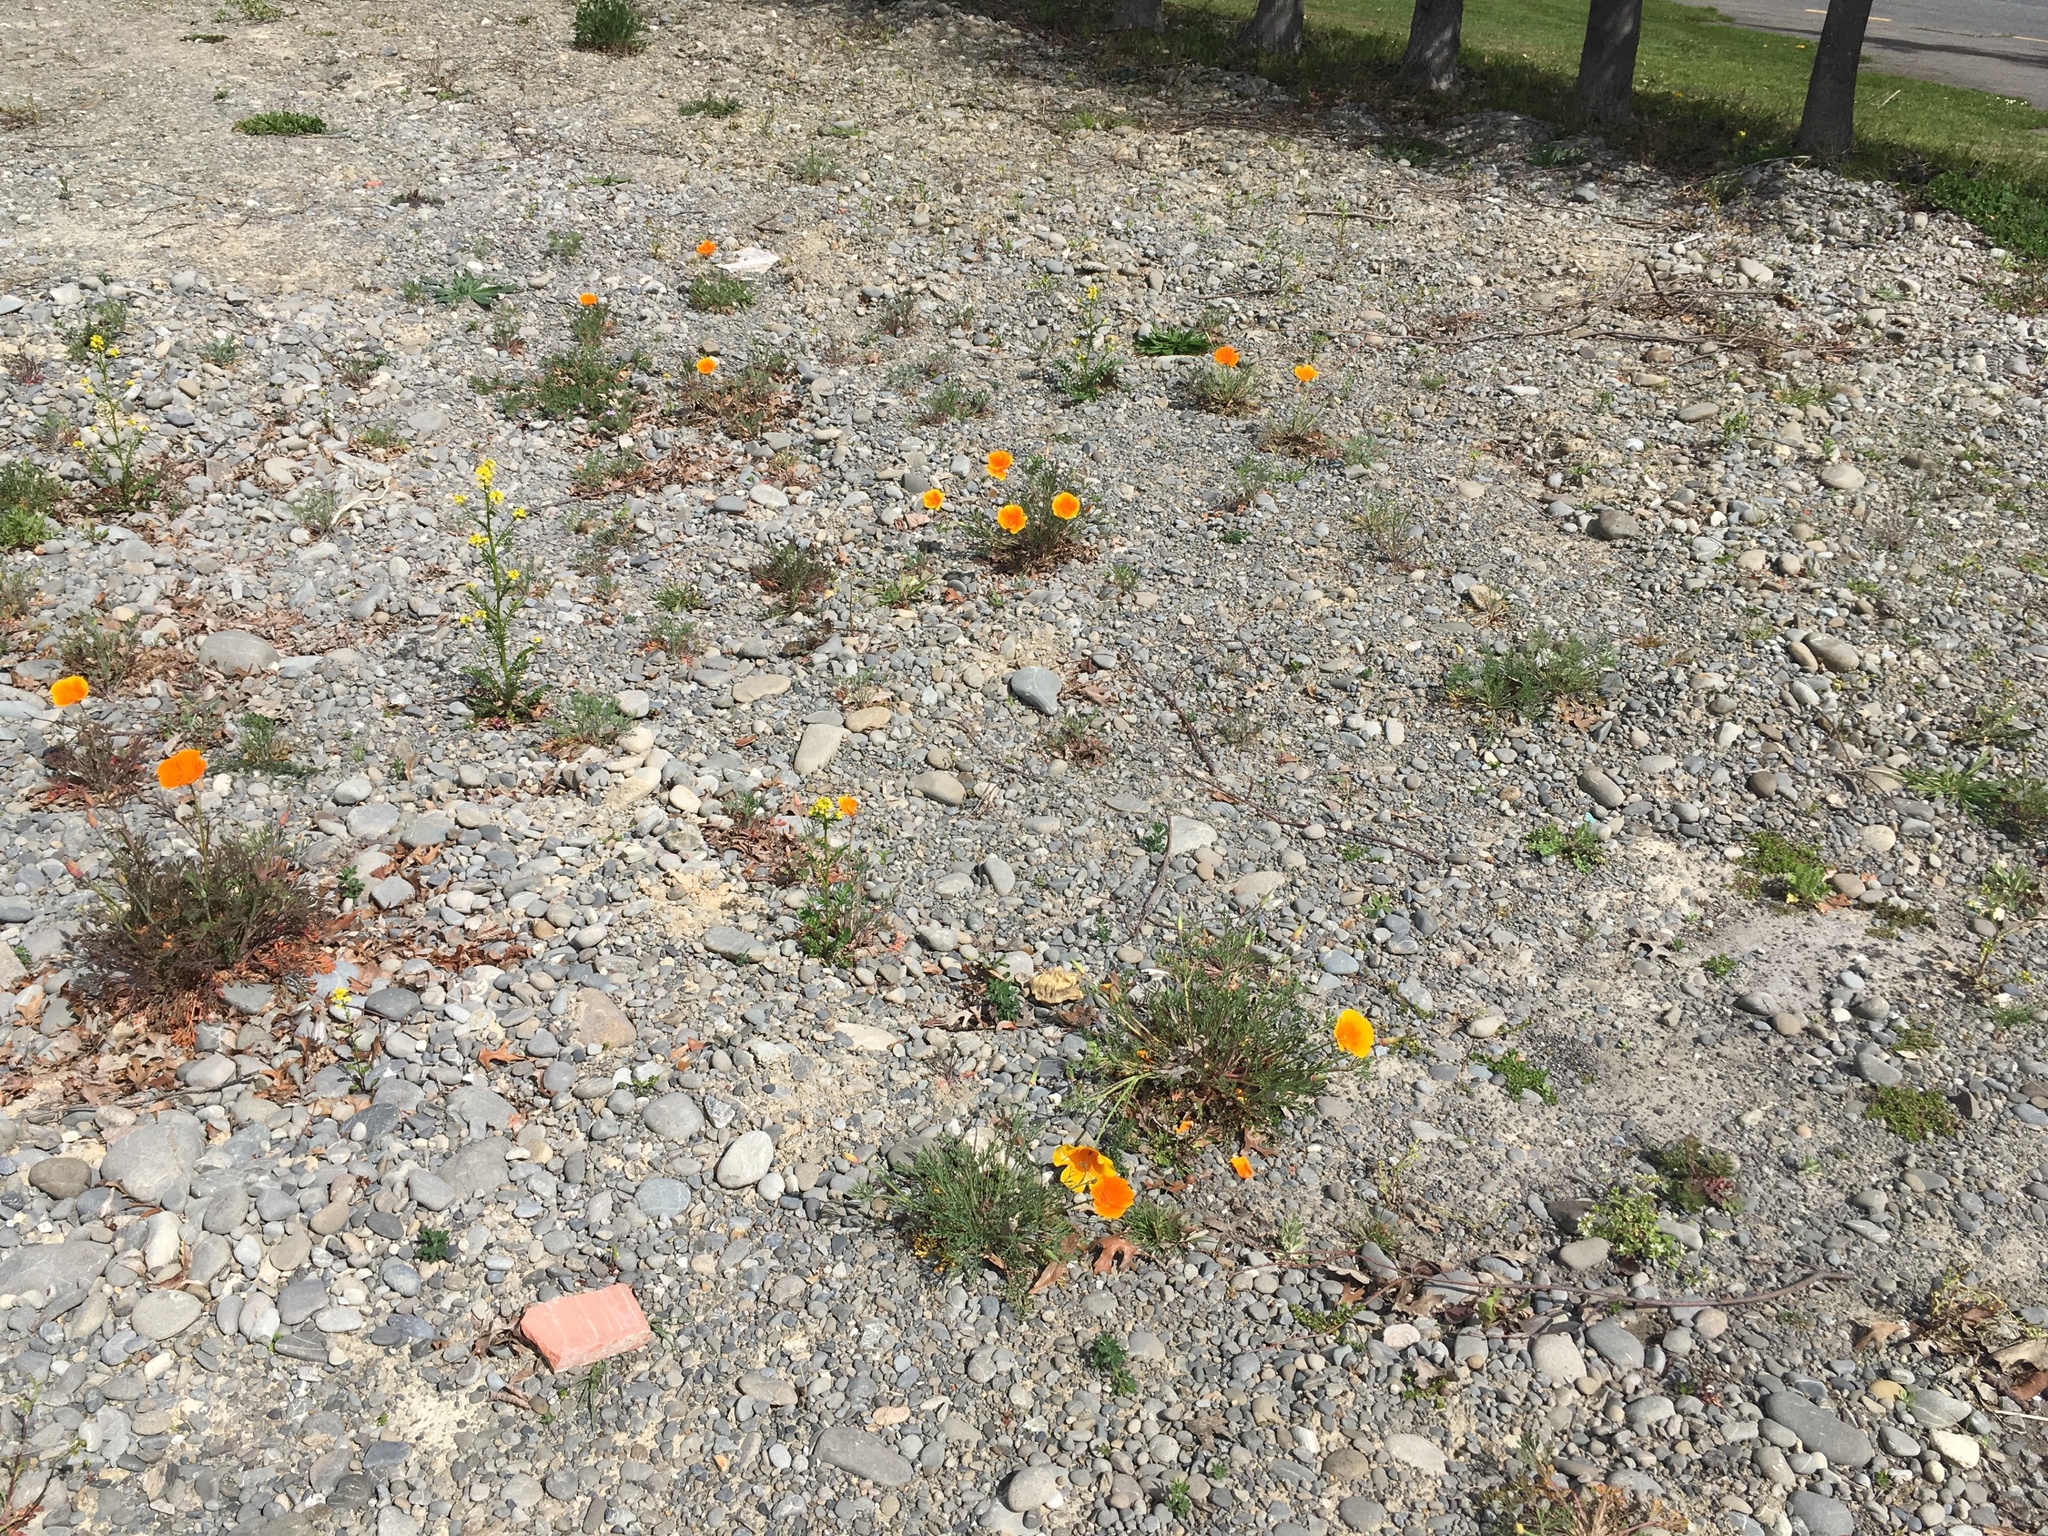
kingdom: Plantae
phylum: Tracheophyta
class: Magnoliopsida
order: Ranunculales
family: Papaveraceae
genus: Eschscholzia
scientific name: Eschscholzia californica
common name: California poppy
